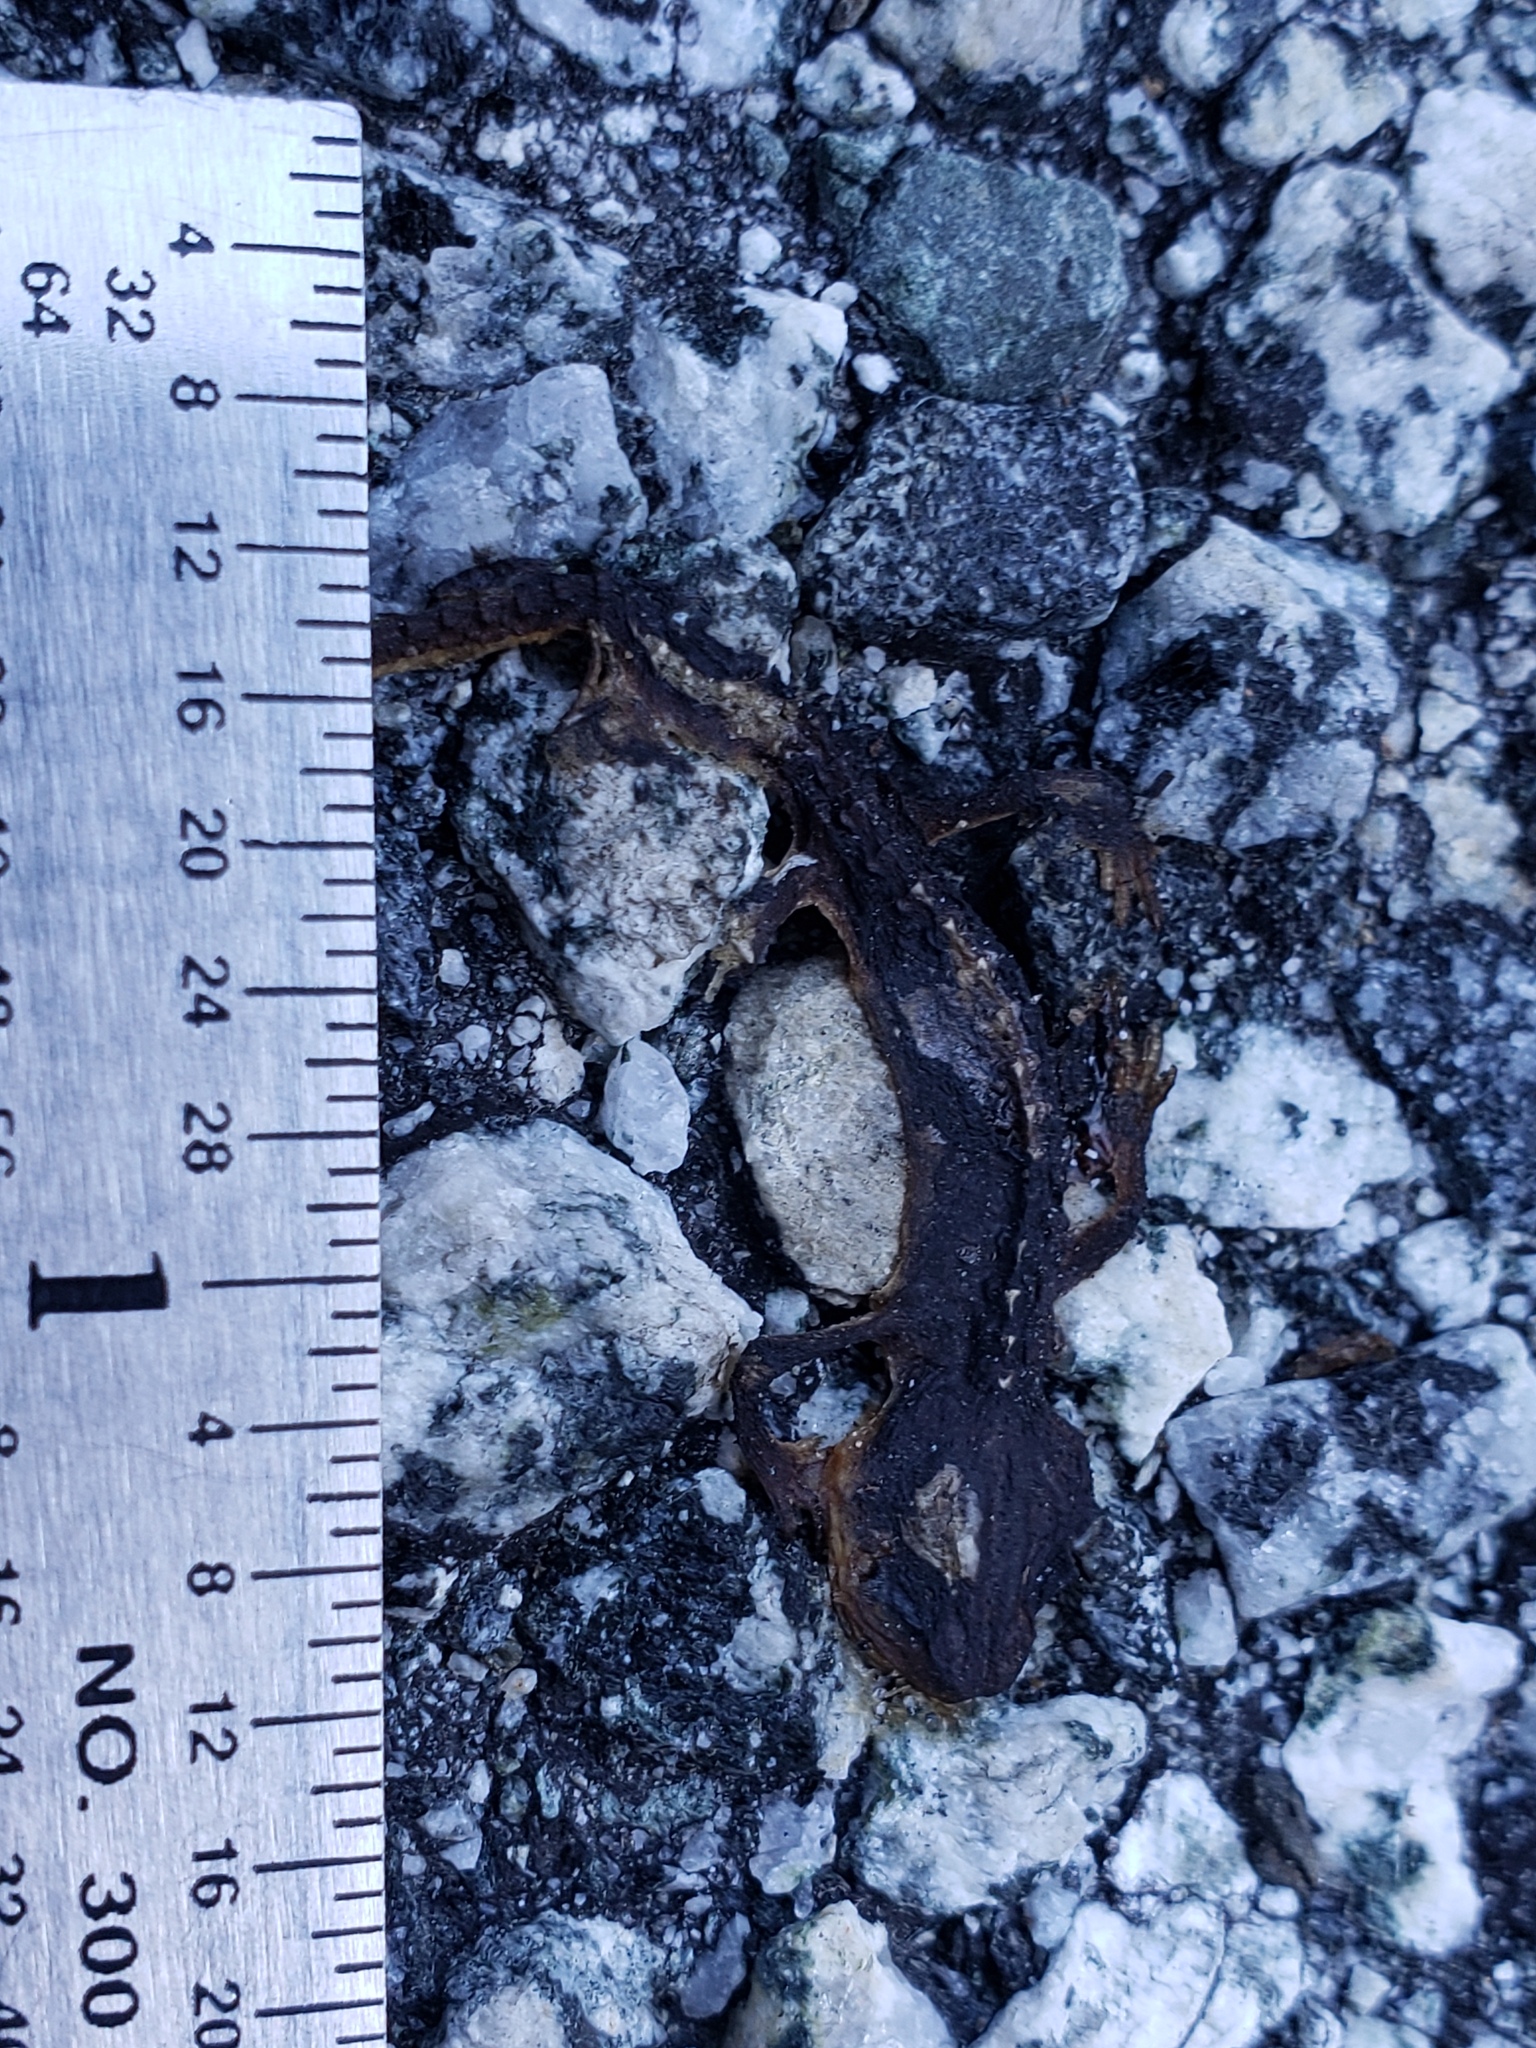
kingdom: Animalia
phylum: Chordata
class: Amphibia
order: Caudata
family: Salamandridae
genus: Taricha
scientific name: Taricha
